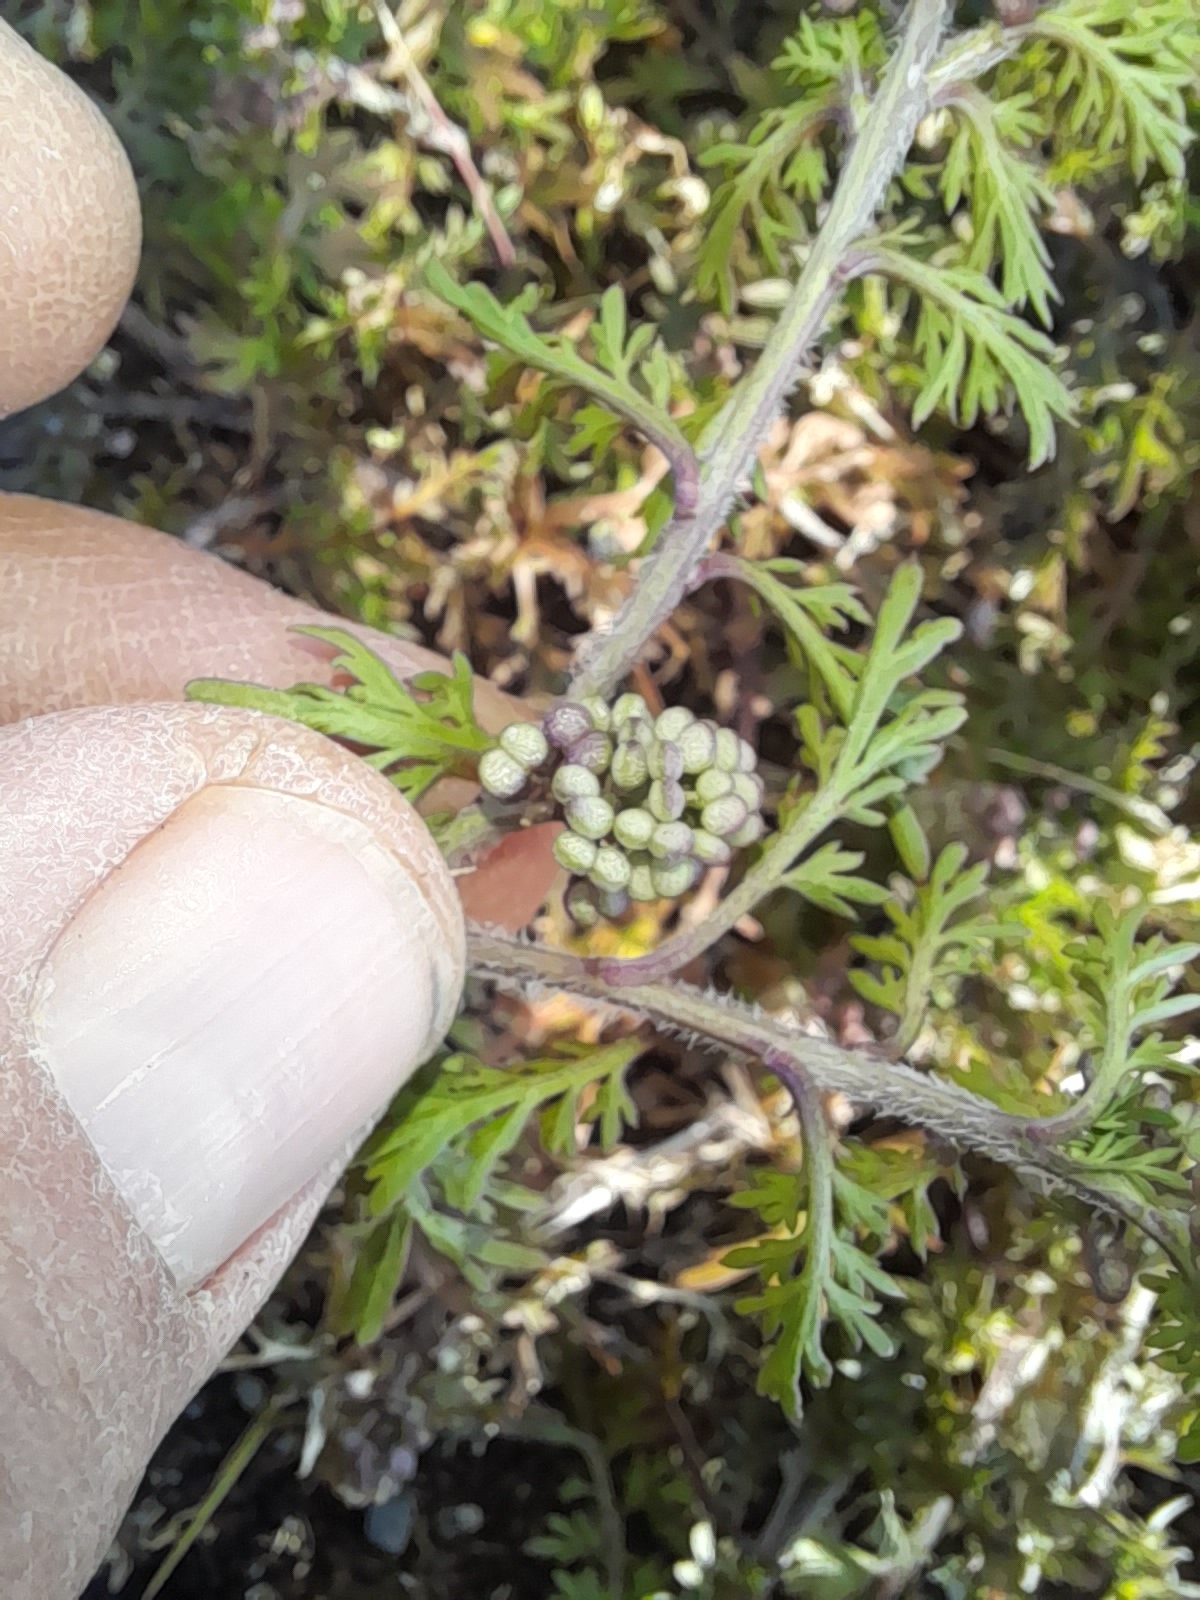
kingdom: Plantae
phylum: Tracheophyta
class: Magnoliopsida
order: Brassicales
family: Brassicaceae
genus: Lepidium
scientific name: Lepidium didymum
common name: Lesser swinecress
